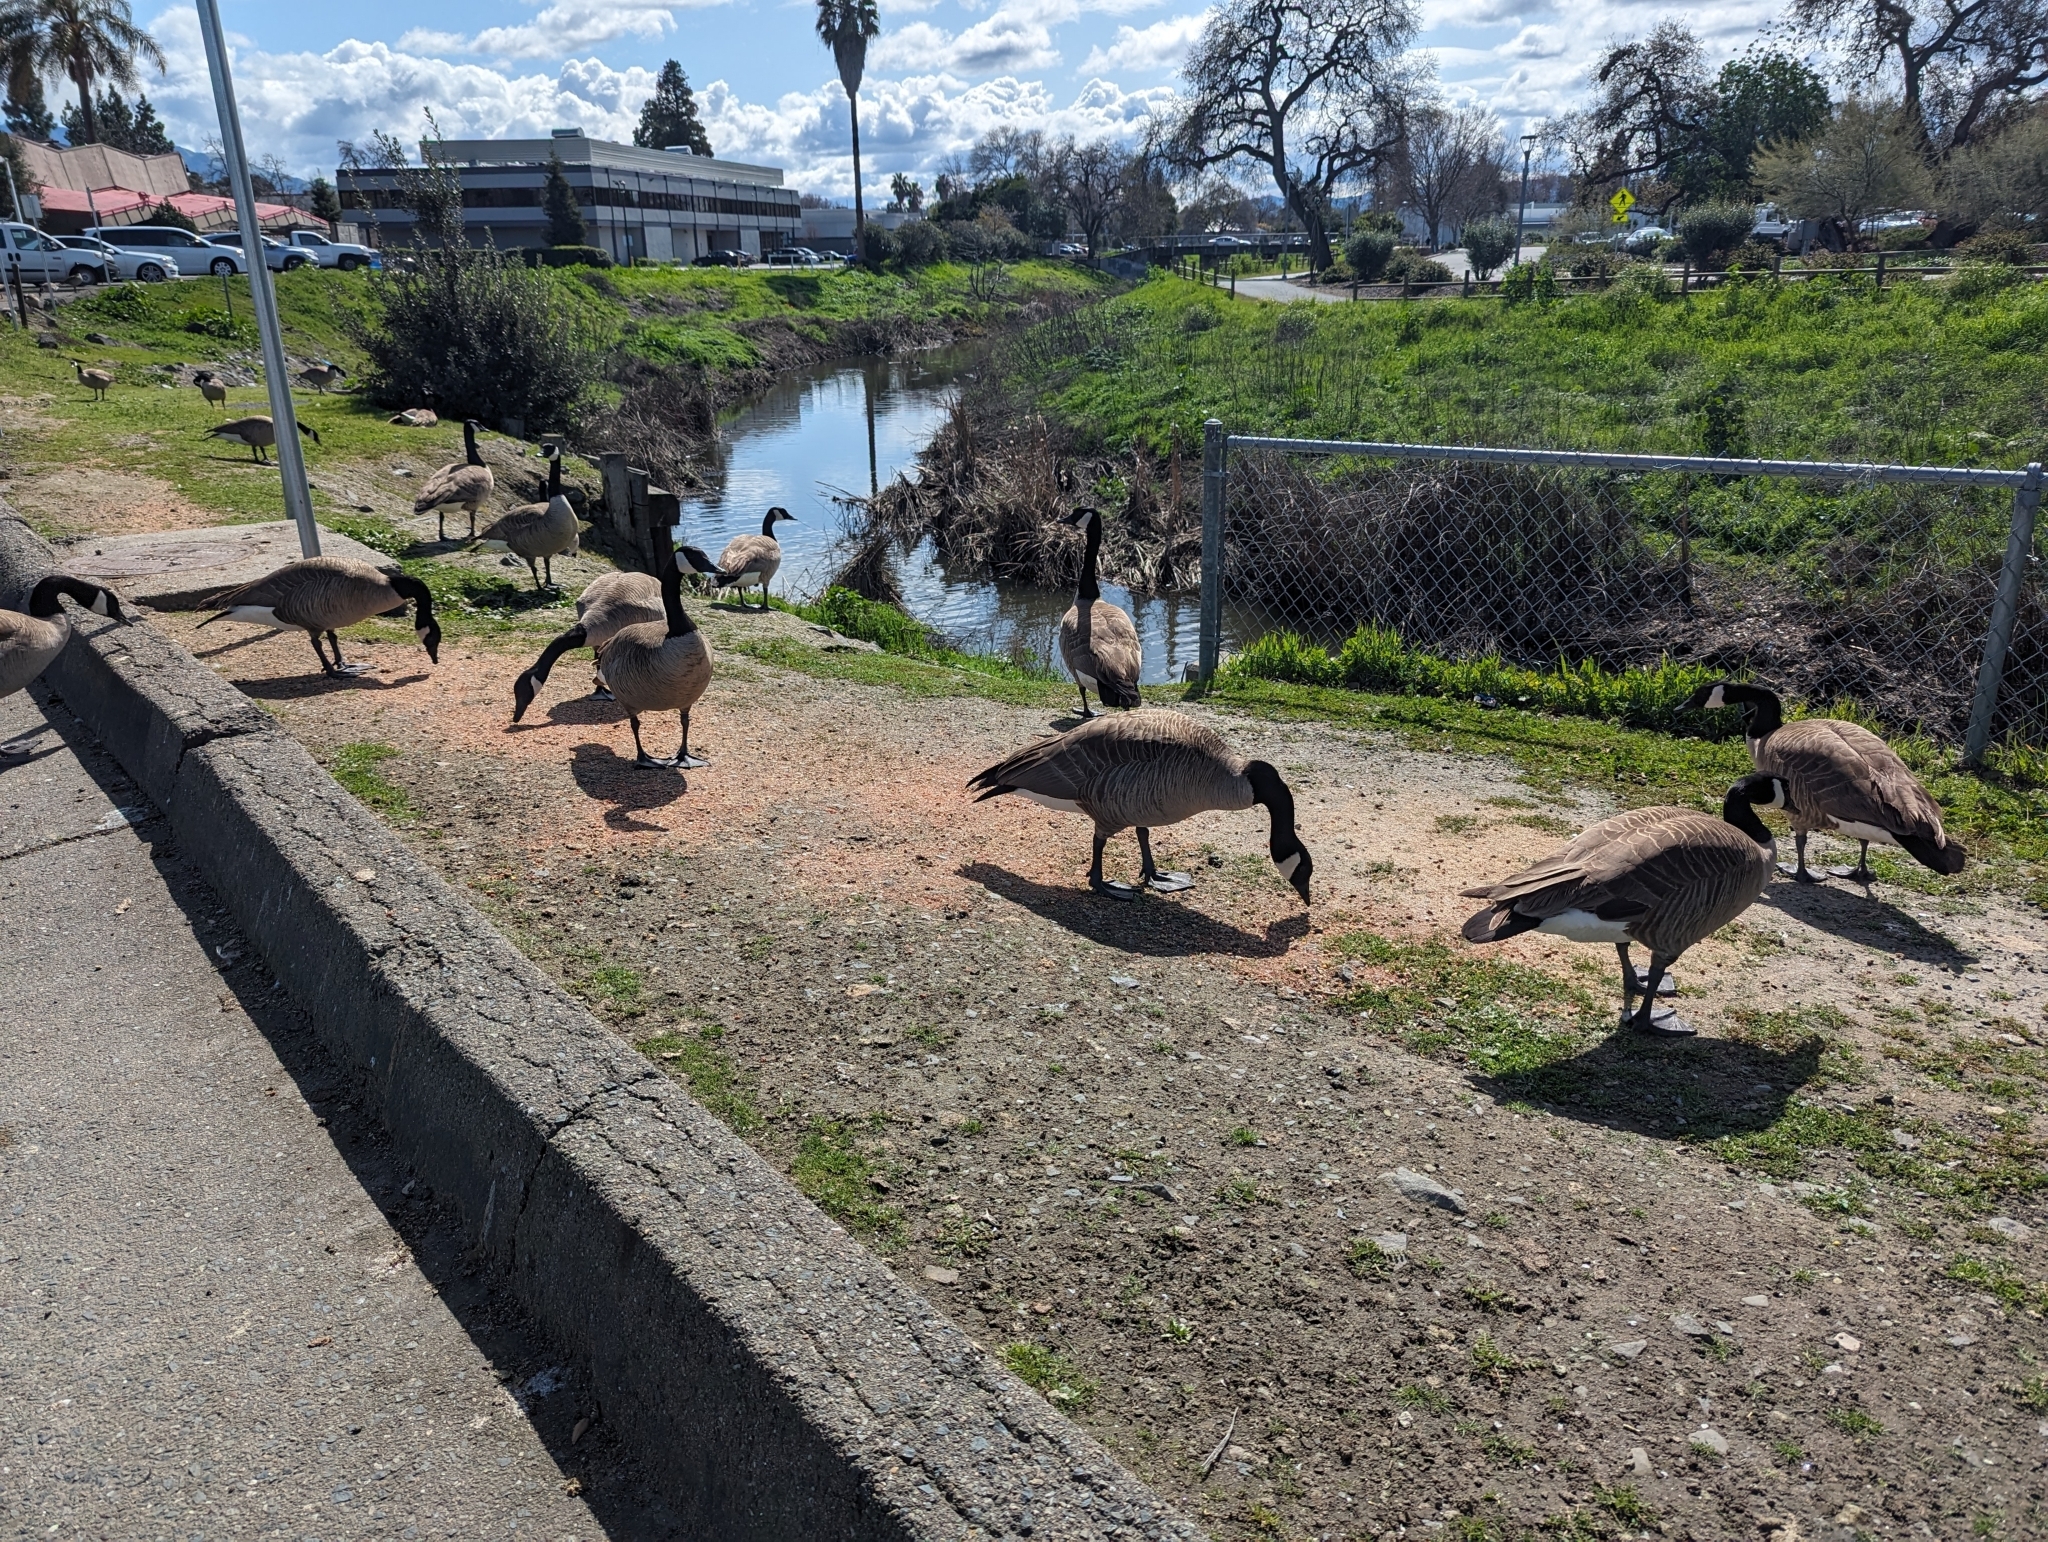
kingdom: Animalia
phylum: Chordata
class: Aves
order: Anseriformes
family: Anatidae
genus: Branta
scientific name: Branta canadensis
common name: Canada goose
